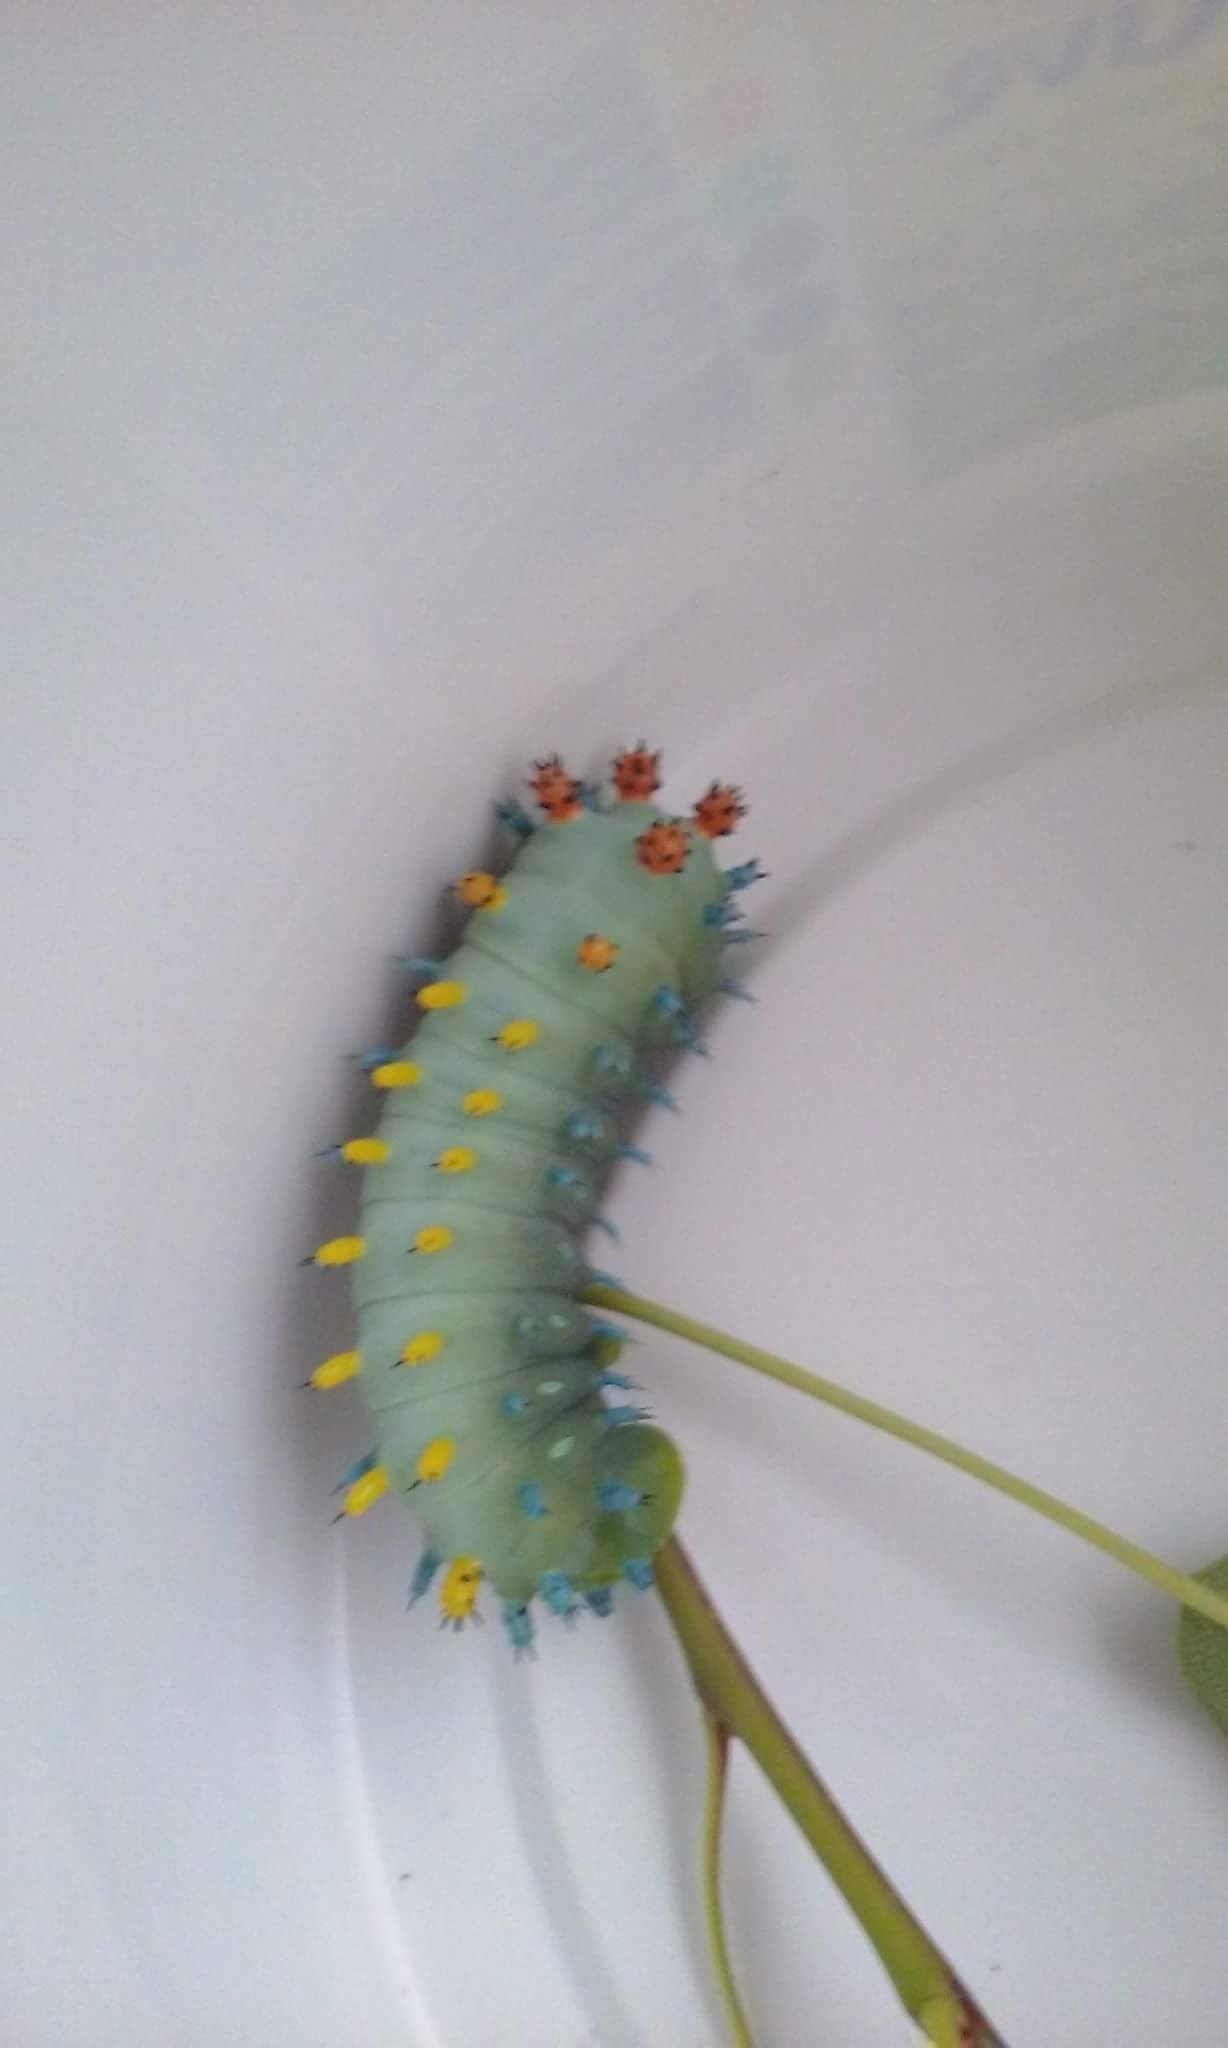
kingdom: Animalia
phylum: Arthropoda
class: Insecta
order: Lepidoptera
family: Saturniidae
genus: Hyalophora
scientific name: Hyalophora cecropia
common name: Cecropia silkmoth
